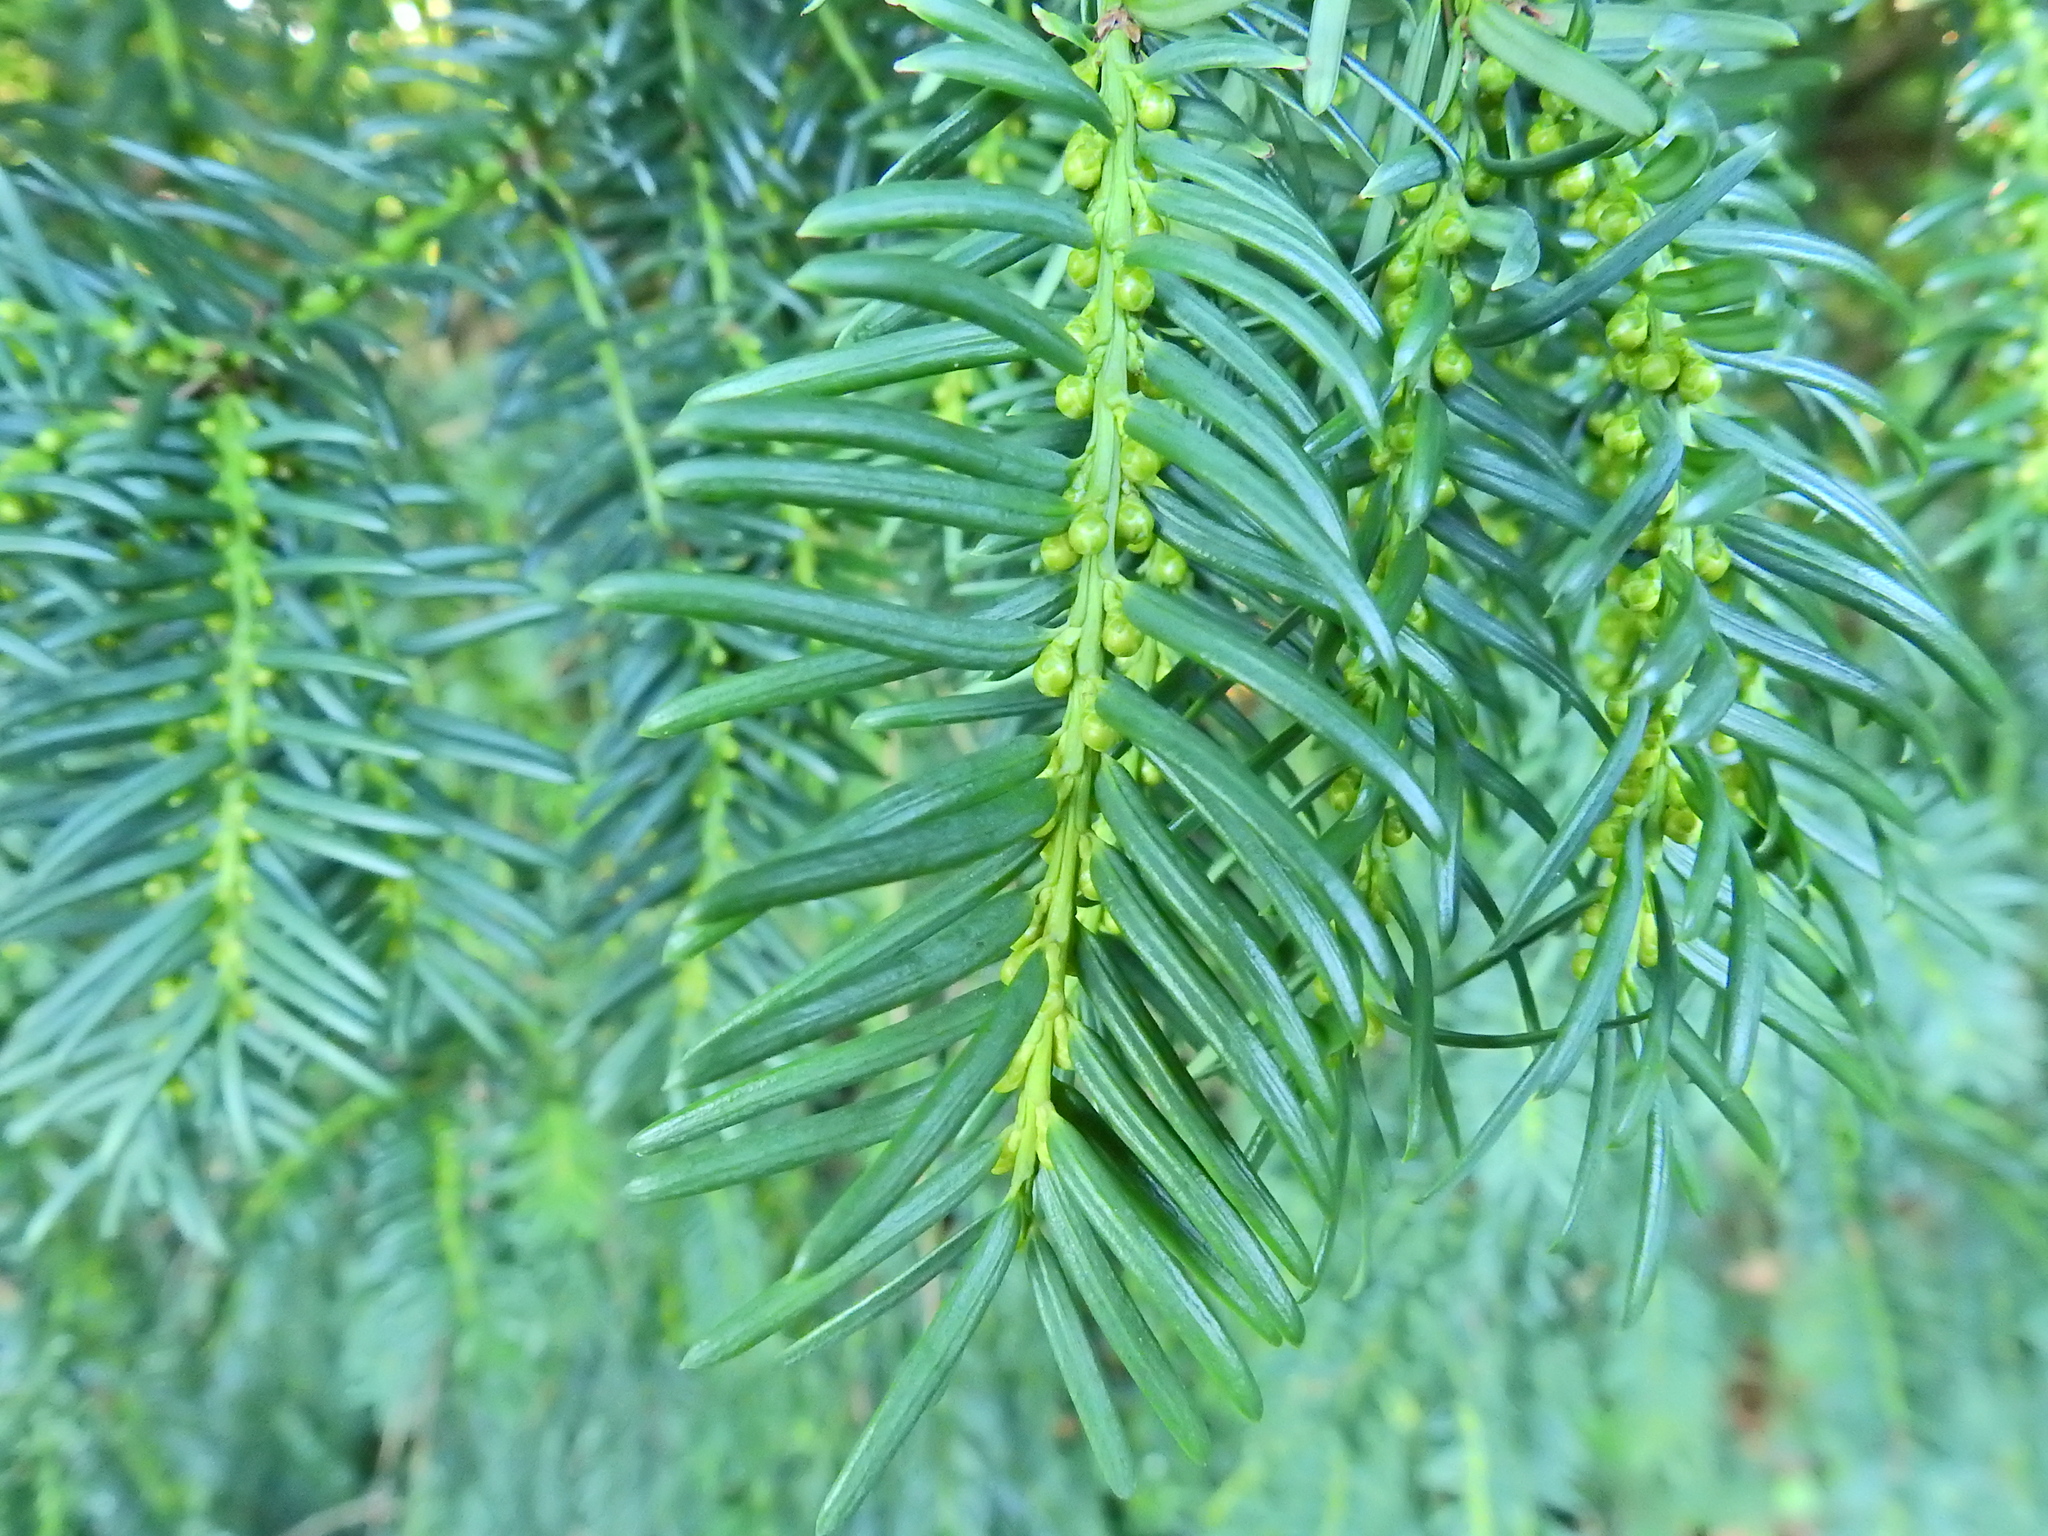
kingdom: Plantae
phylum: Tracheophyta
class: Pinopsida
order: Pinales
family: Taxaceae
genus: Taxus
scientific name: Taxus baccata
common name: Yew
